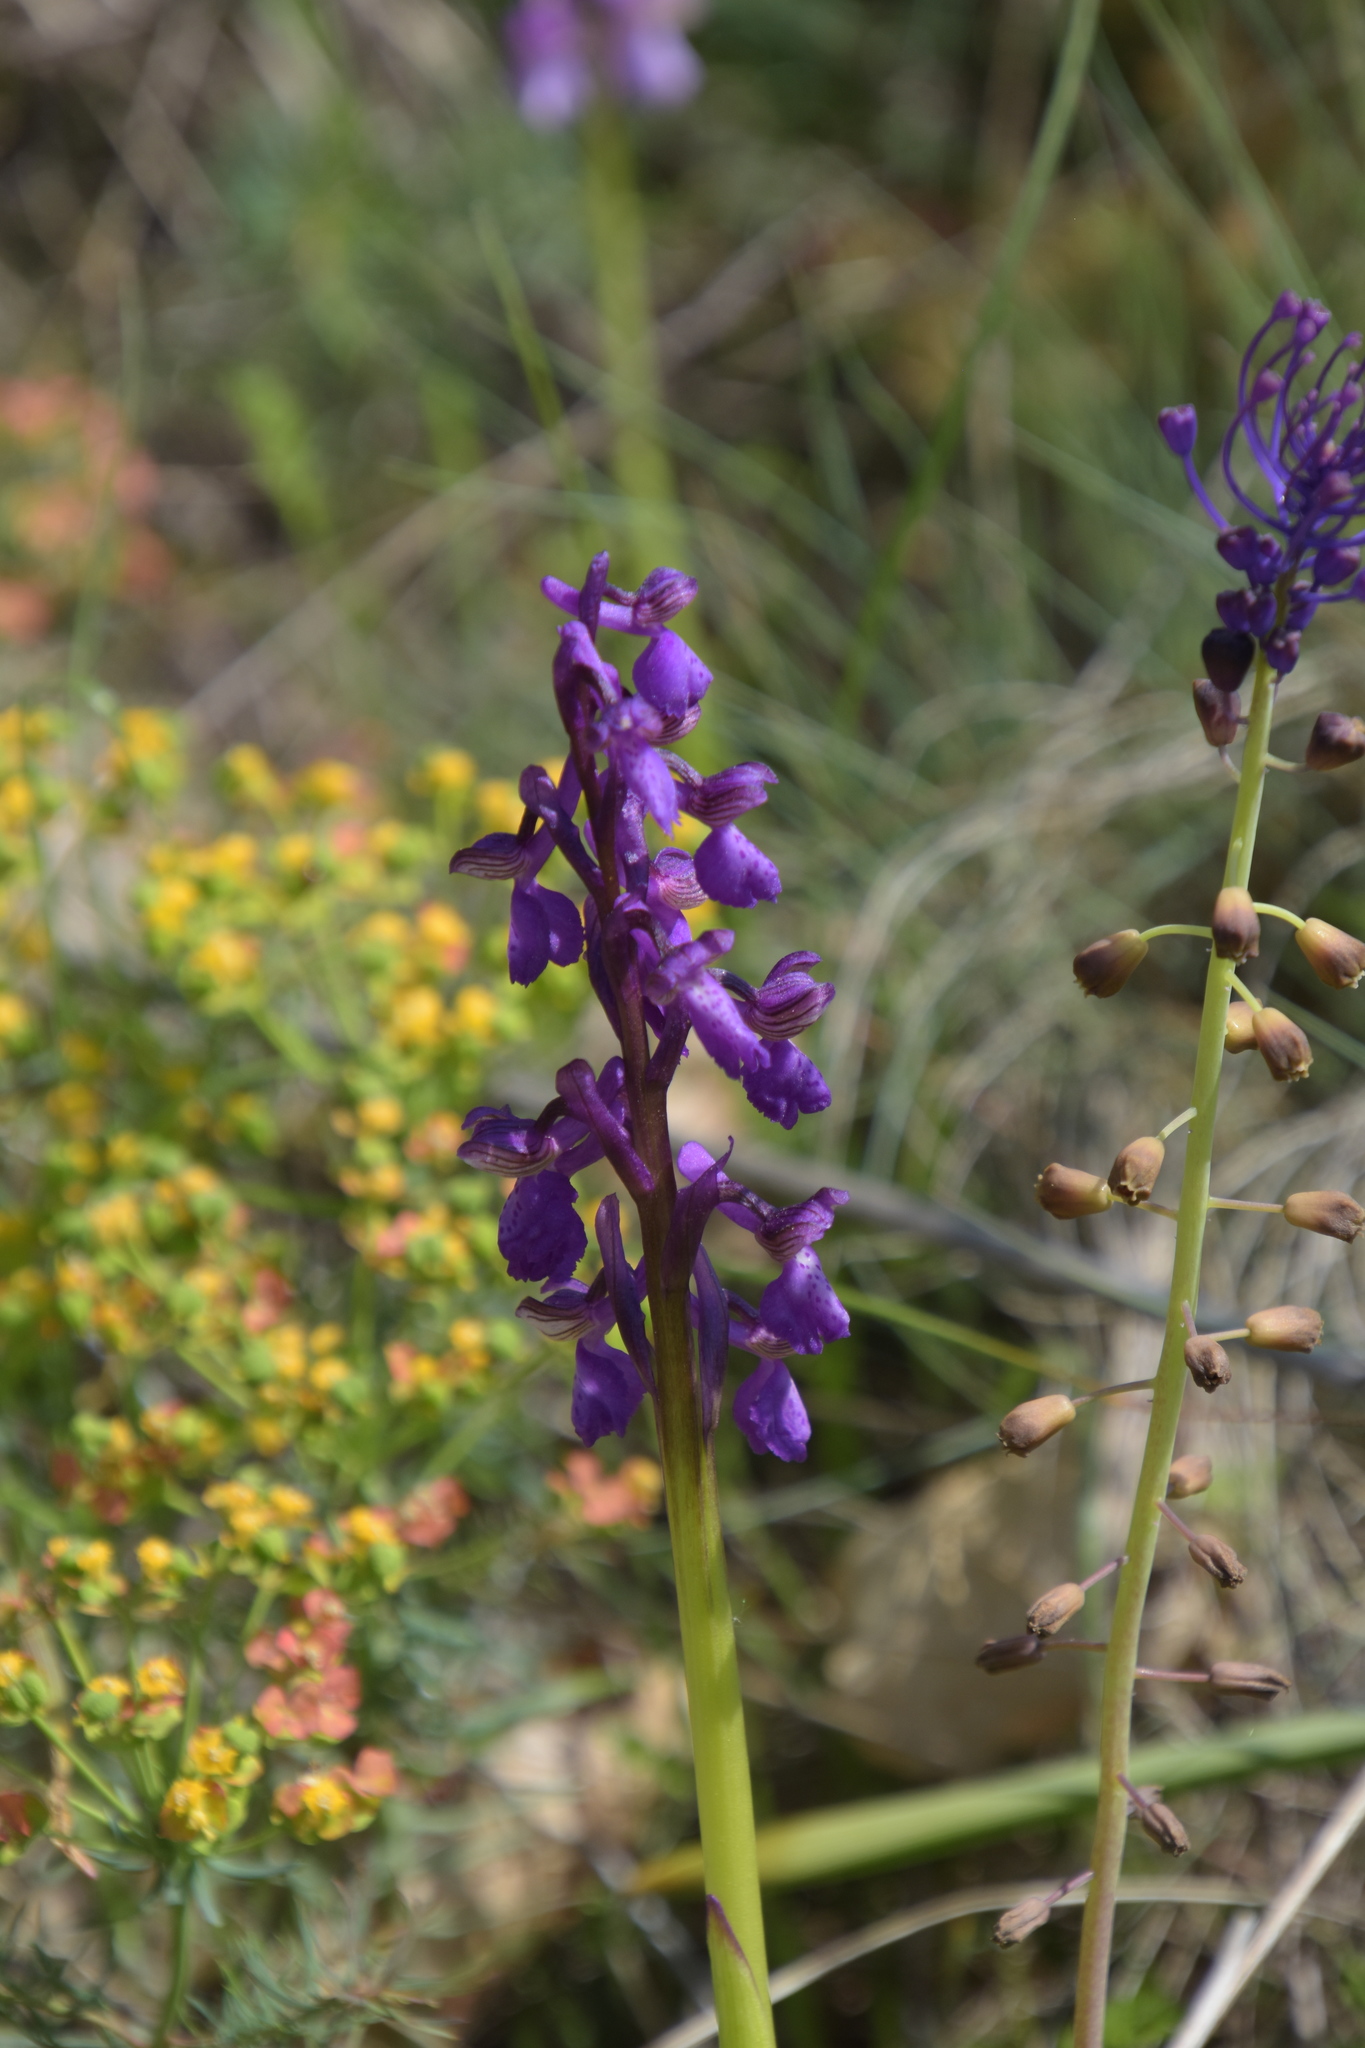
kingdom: Plantae
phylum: Tracheophyta
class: Liliopsida
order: Asparagales
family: Orchidaceae
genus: Anacamptis
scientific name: Anacamptis morio
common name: Green-winged orchid
